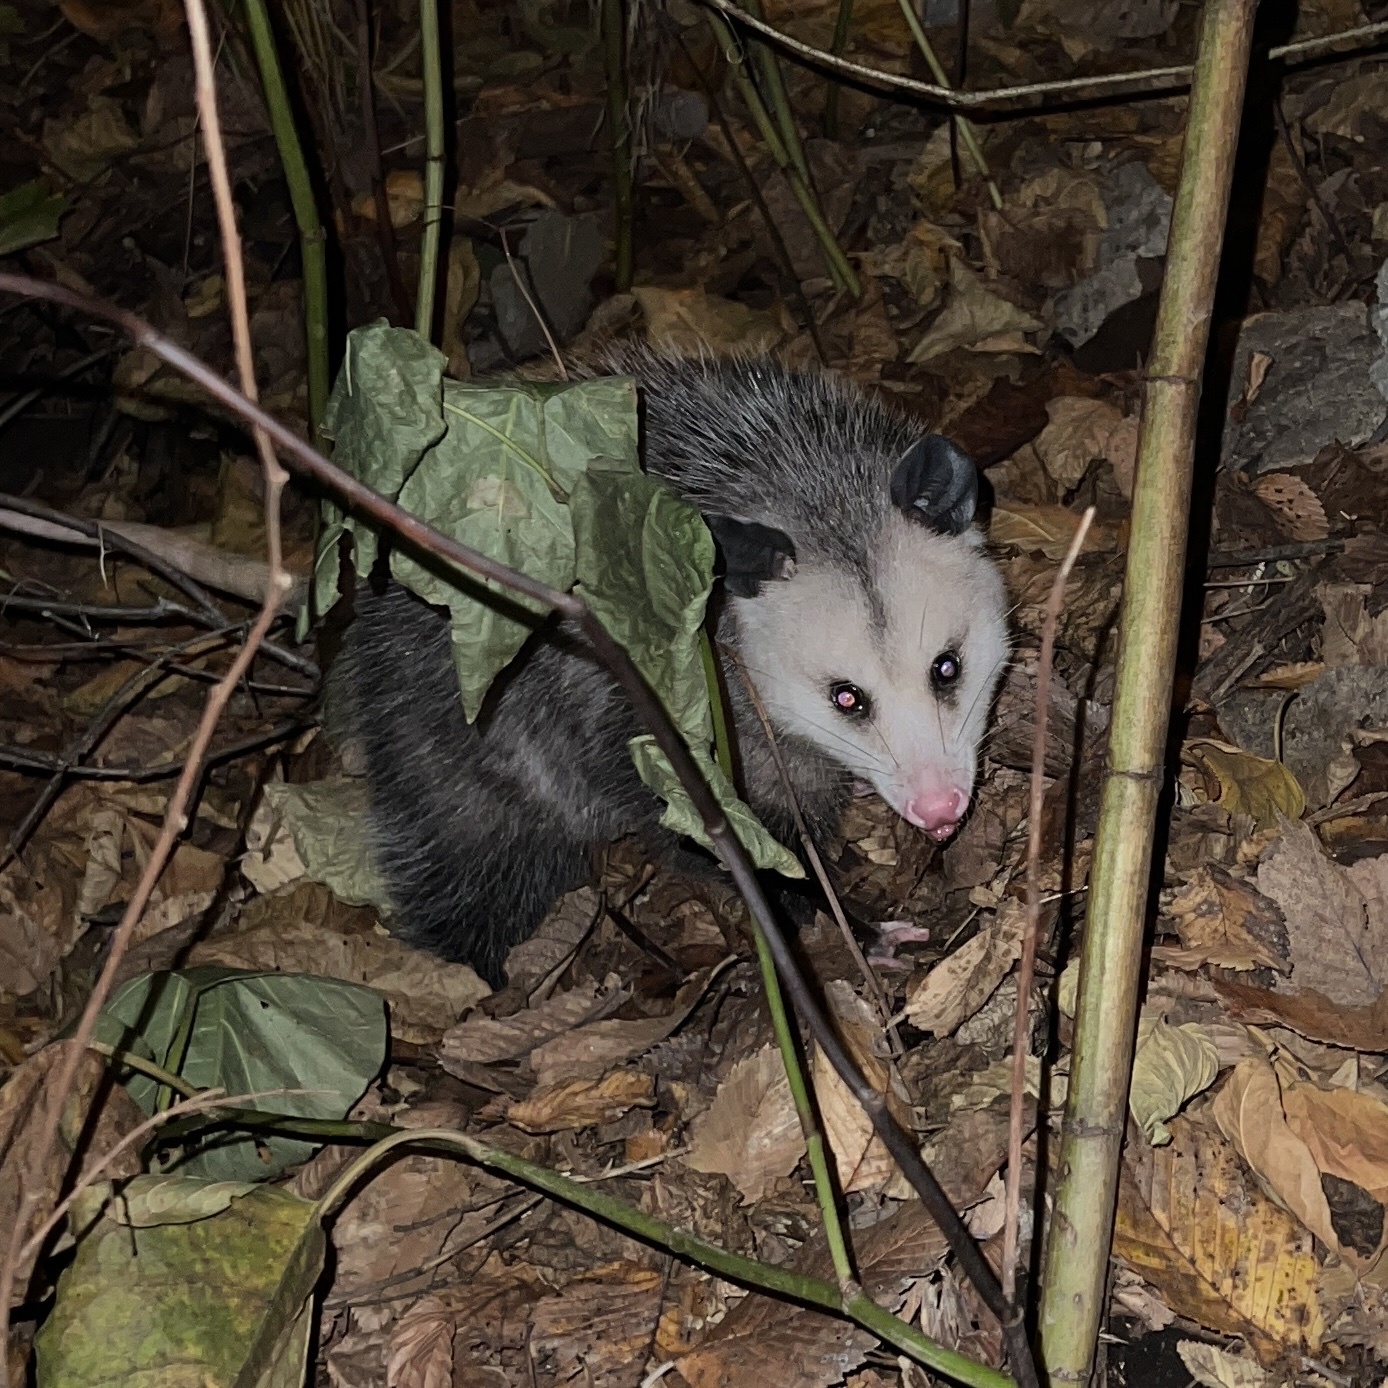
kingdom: Animalia
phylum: Chordata
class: Mammalia
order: Didelphimorphia
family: Didelphidae
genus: Didelphis
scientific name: Didelphis virginiana
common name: Virginia opossum
